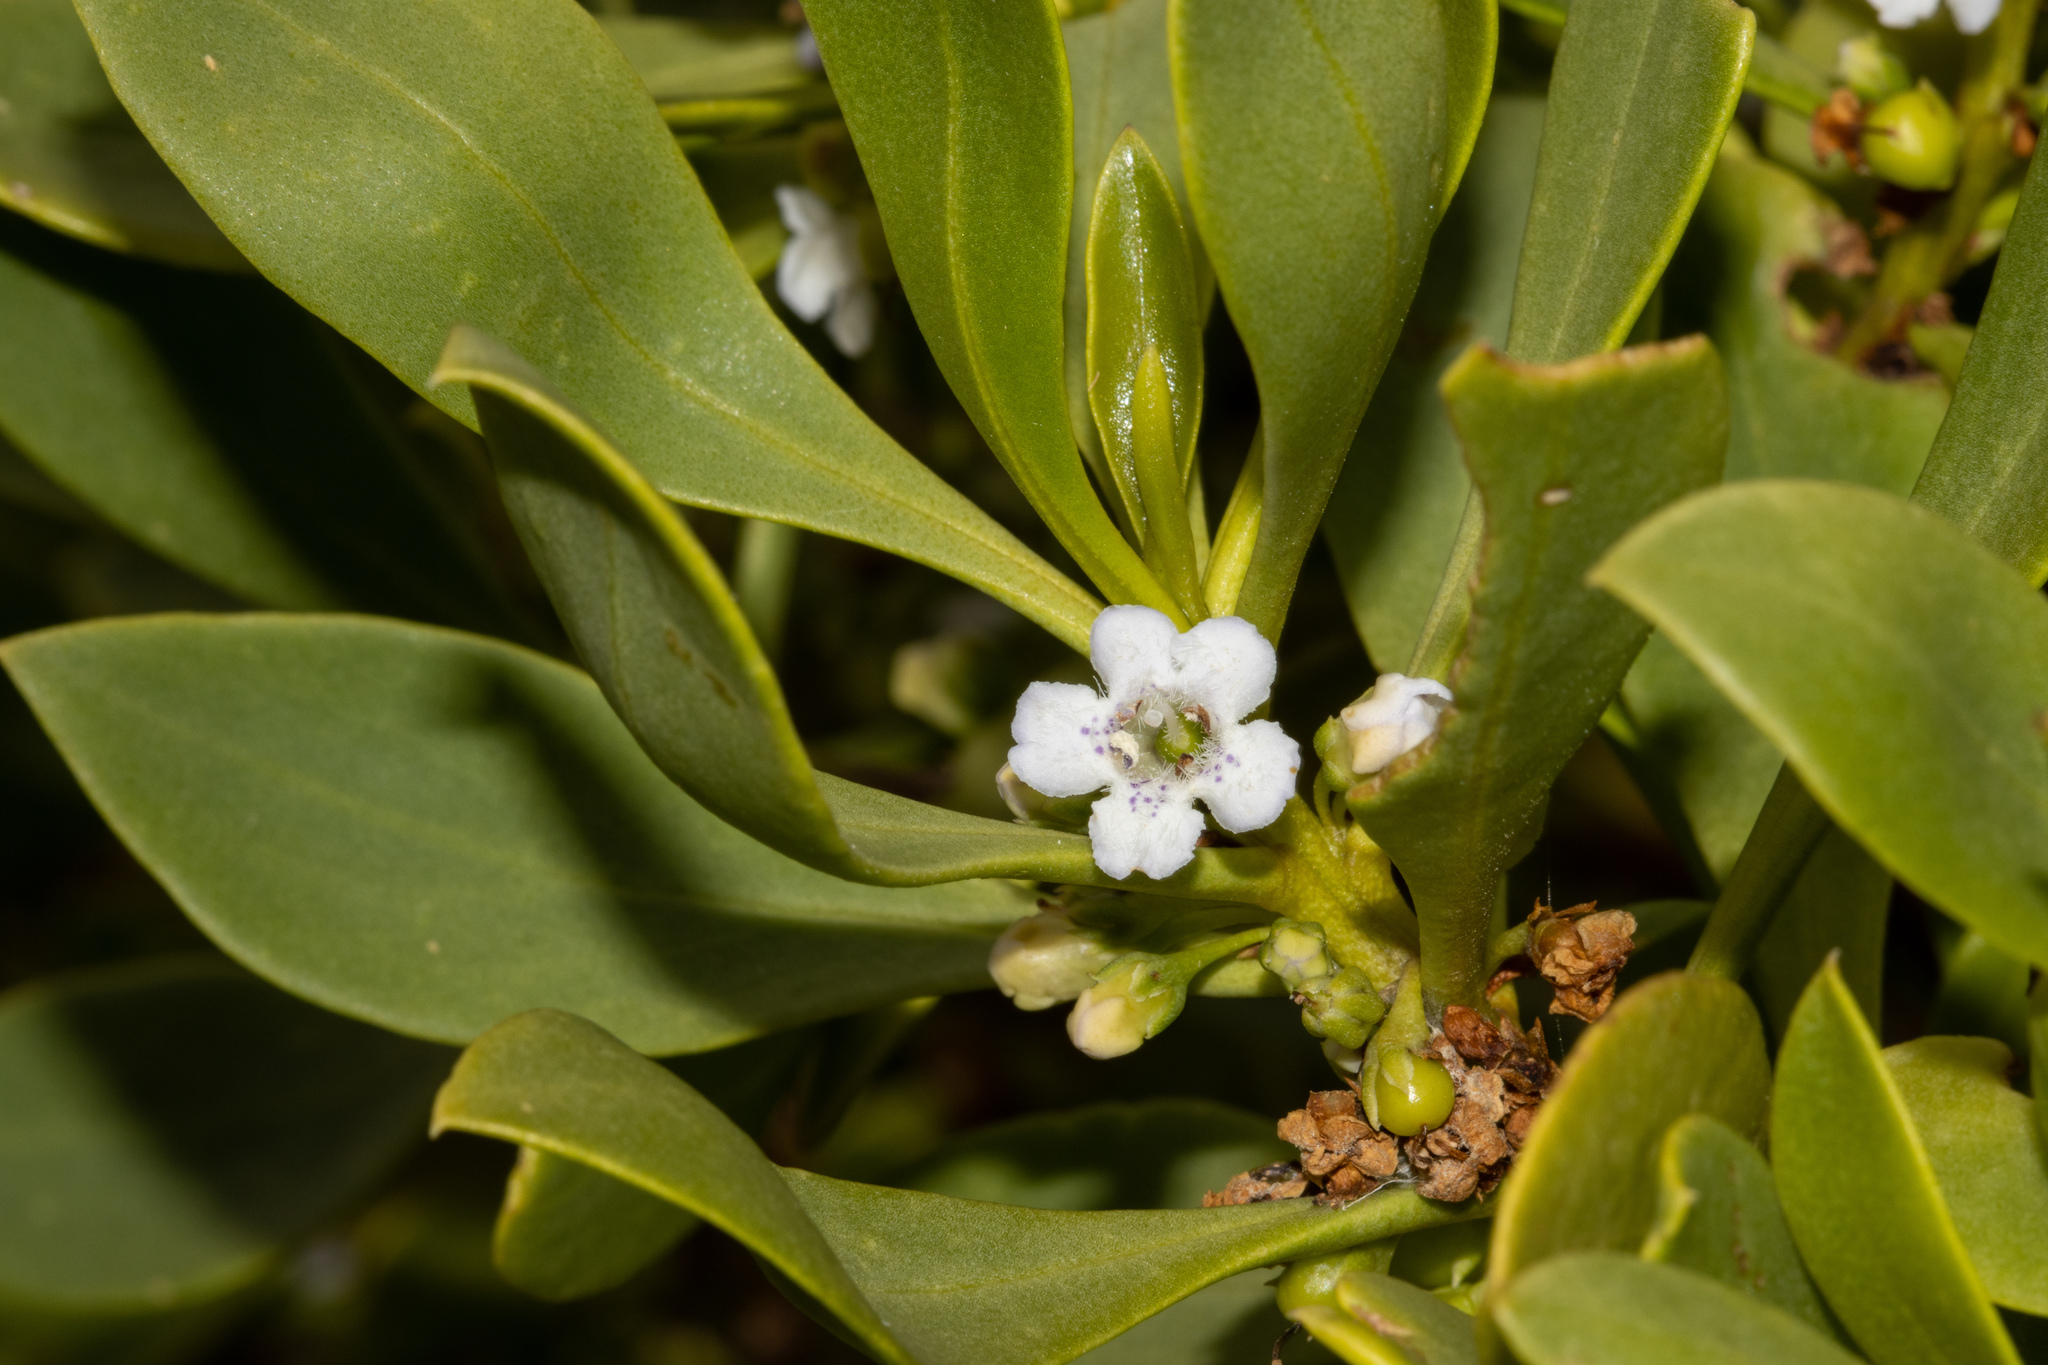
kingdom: Plantae
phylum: Tracheophyta
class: Magnoliopsida
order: Lamiales
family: Scrophulariaceae
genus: Myoporum
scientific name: Myoporum insulare
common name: Common boobialla
